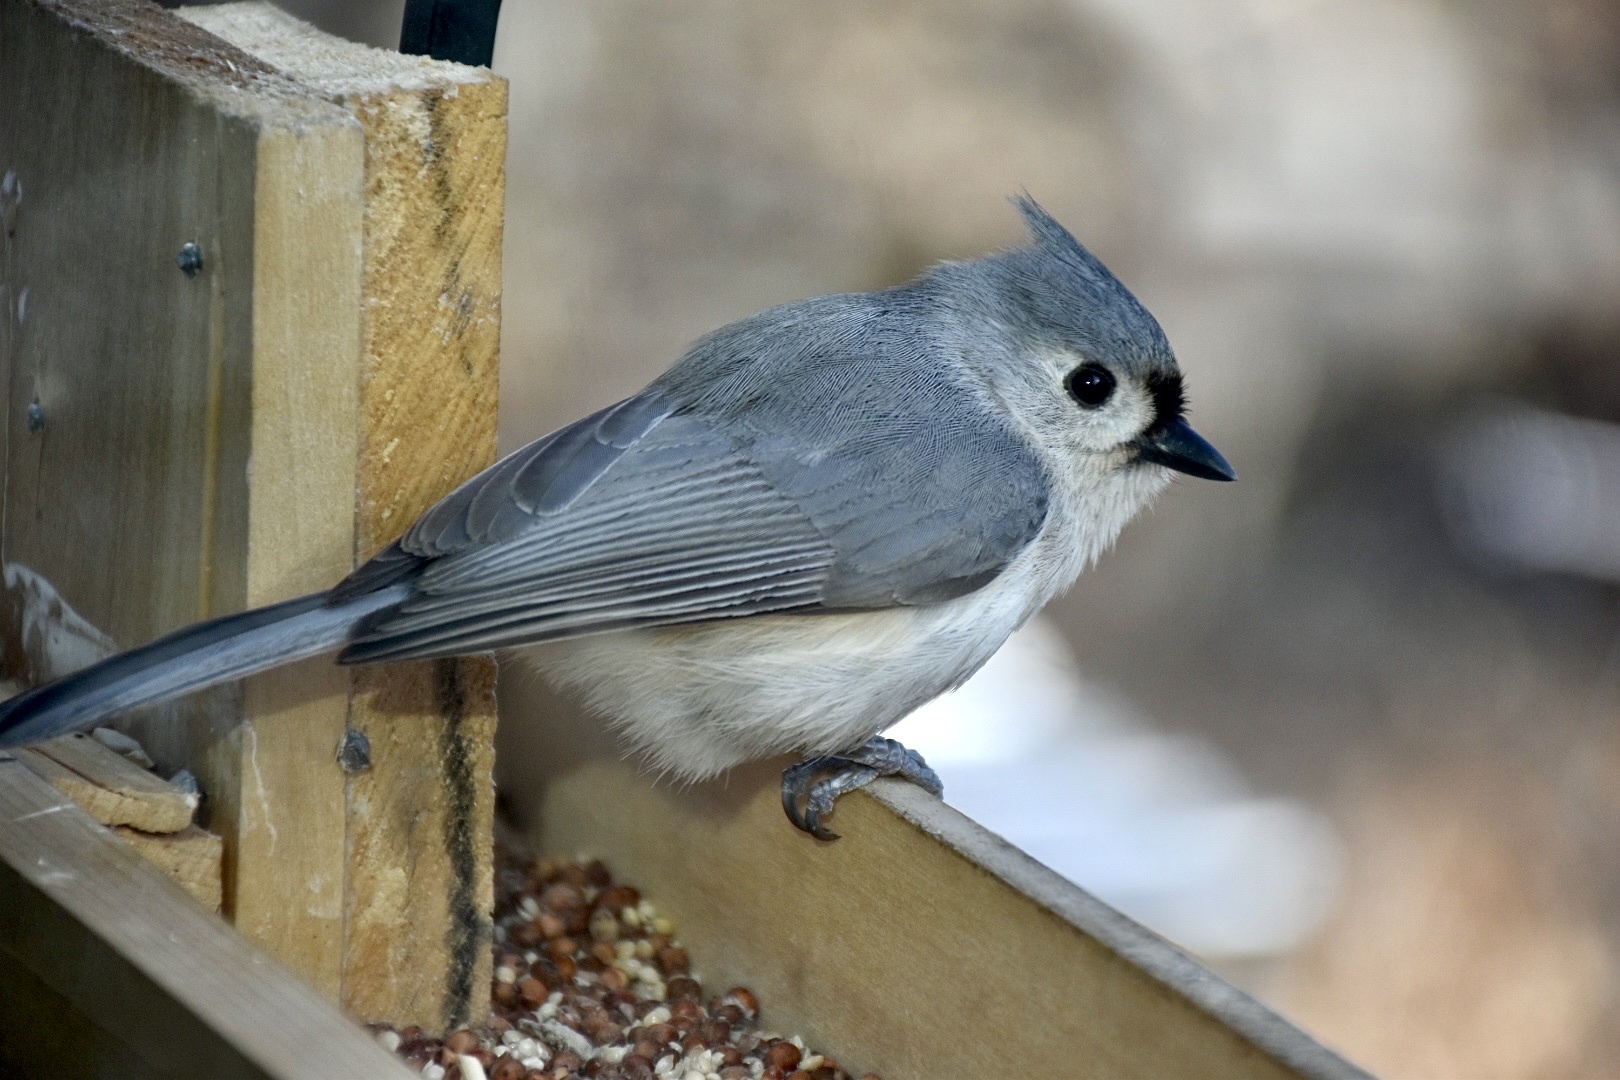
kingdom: Animalia
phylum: Chordata
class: Aves
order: Passeriformes
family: Paridae
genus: Baeolophus
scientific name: Baeolophus bicolor
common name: Tufted titmouse
